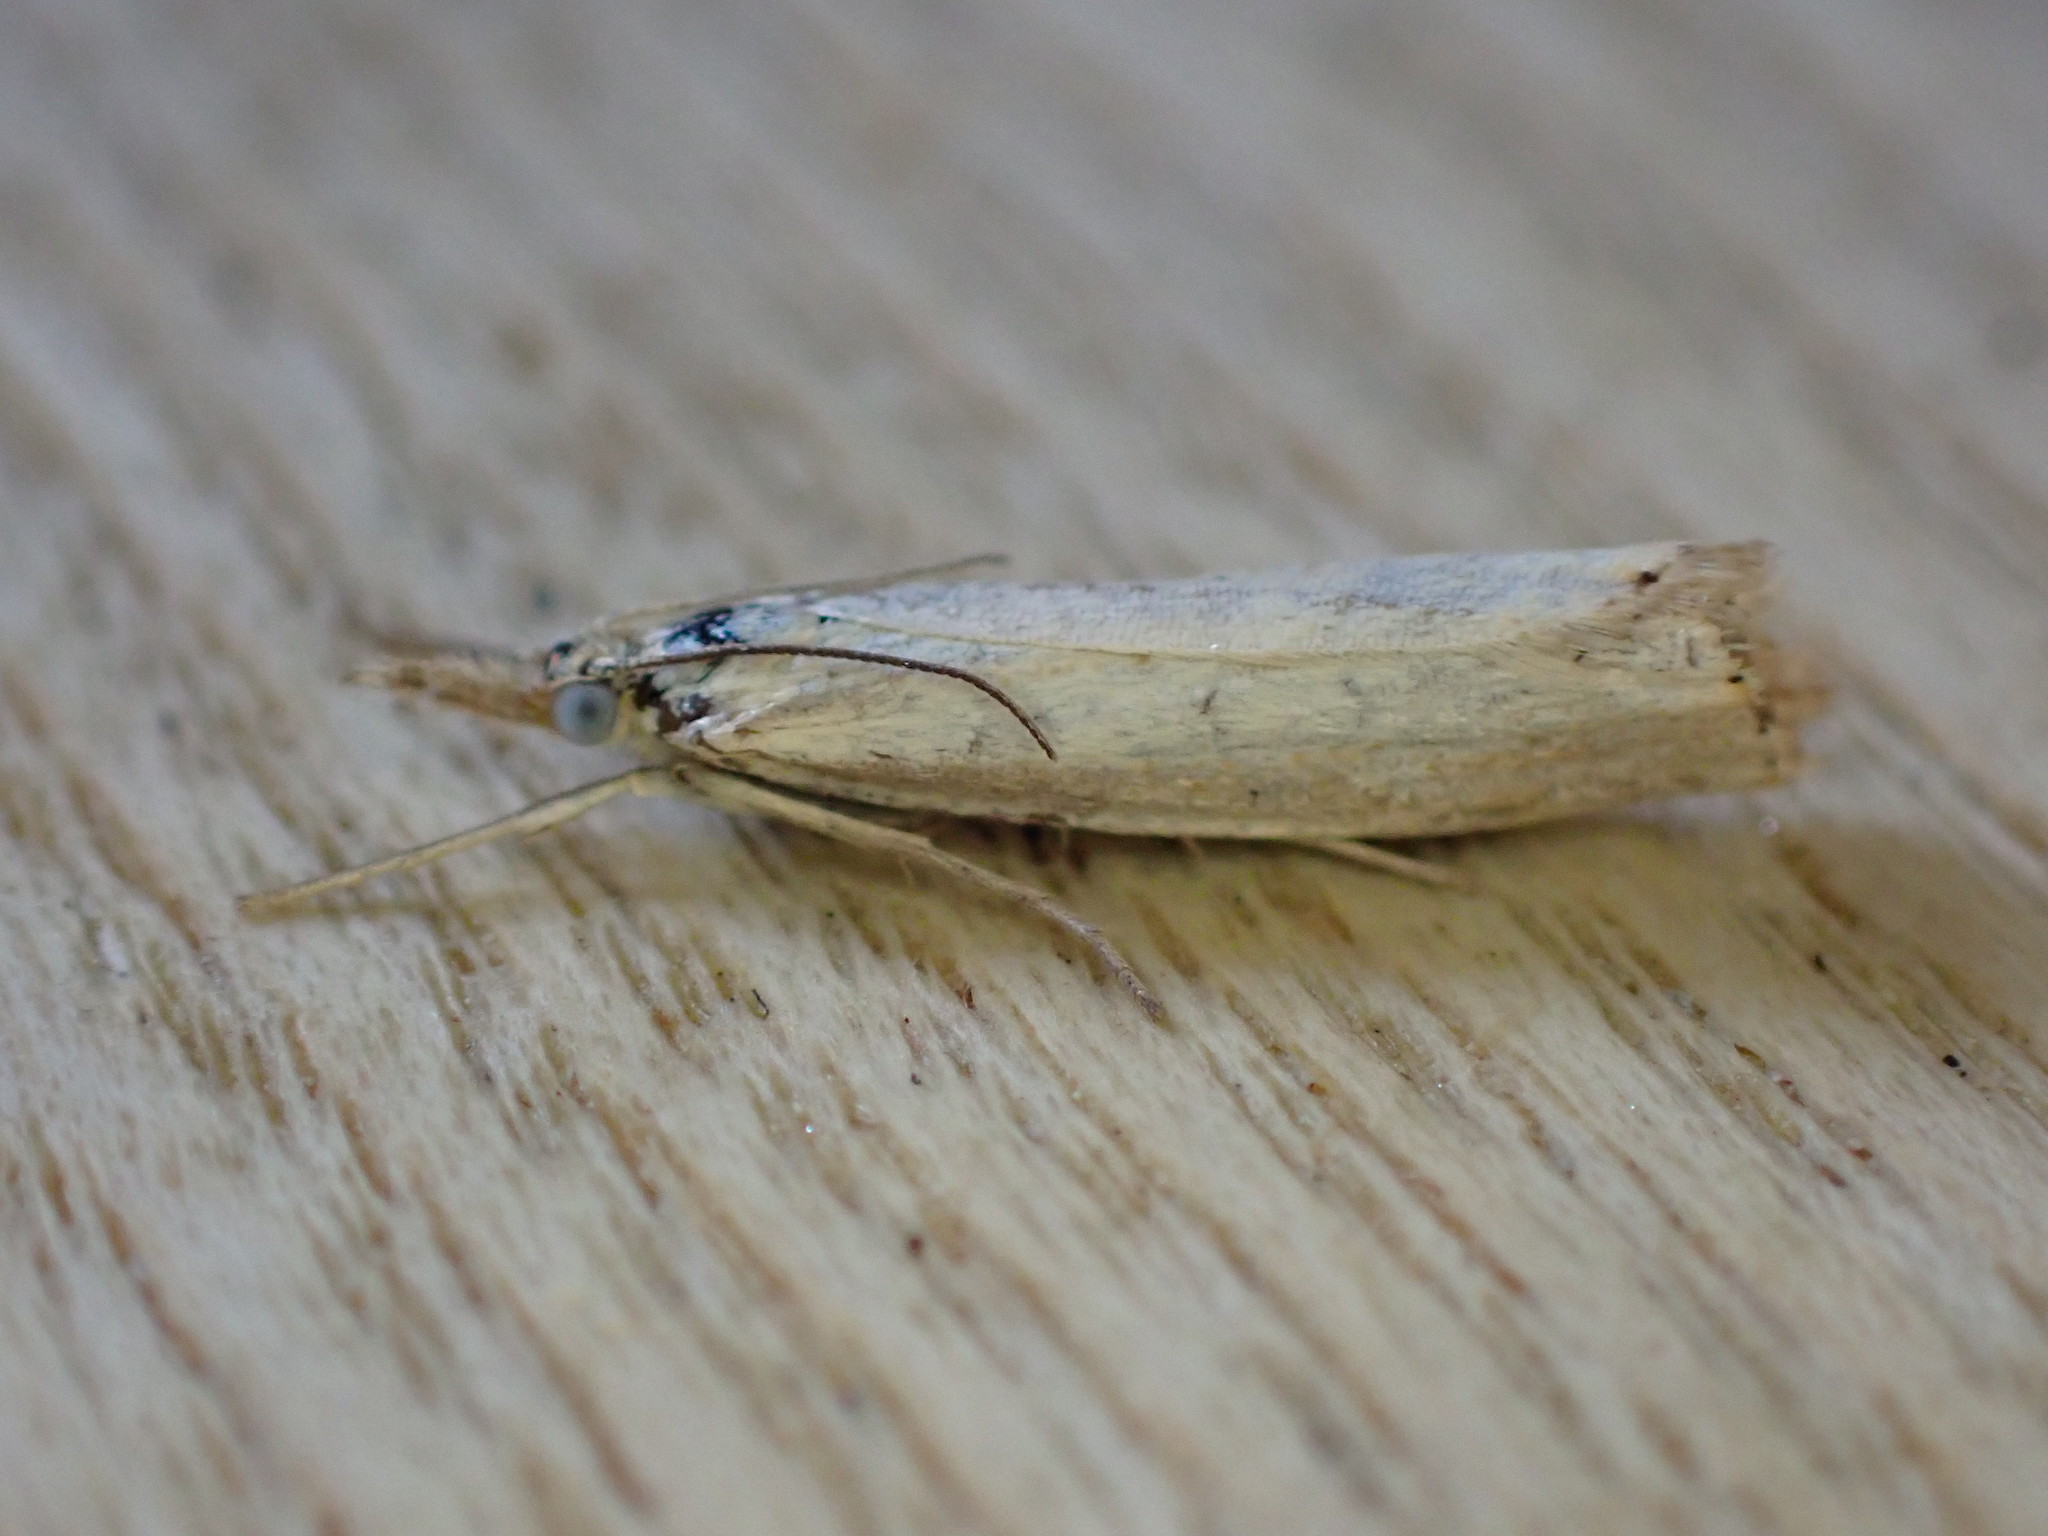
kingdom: Animalia
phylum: Arthropoda
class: Insecta
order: Lepidoptera
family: Crambidae
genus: Agriphila
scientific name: Agriphila straminella
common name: Straw grass-veneer
